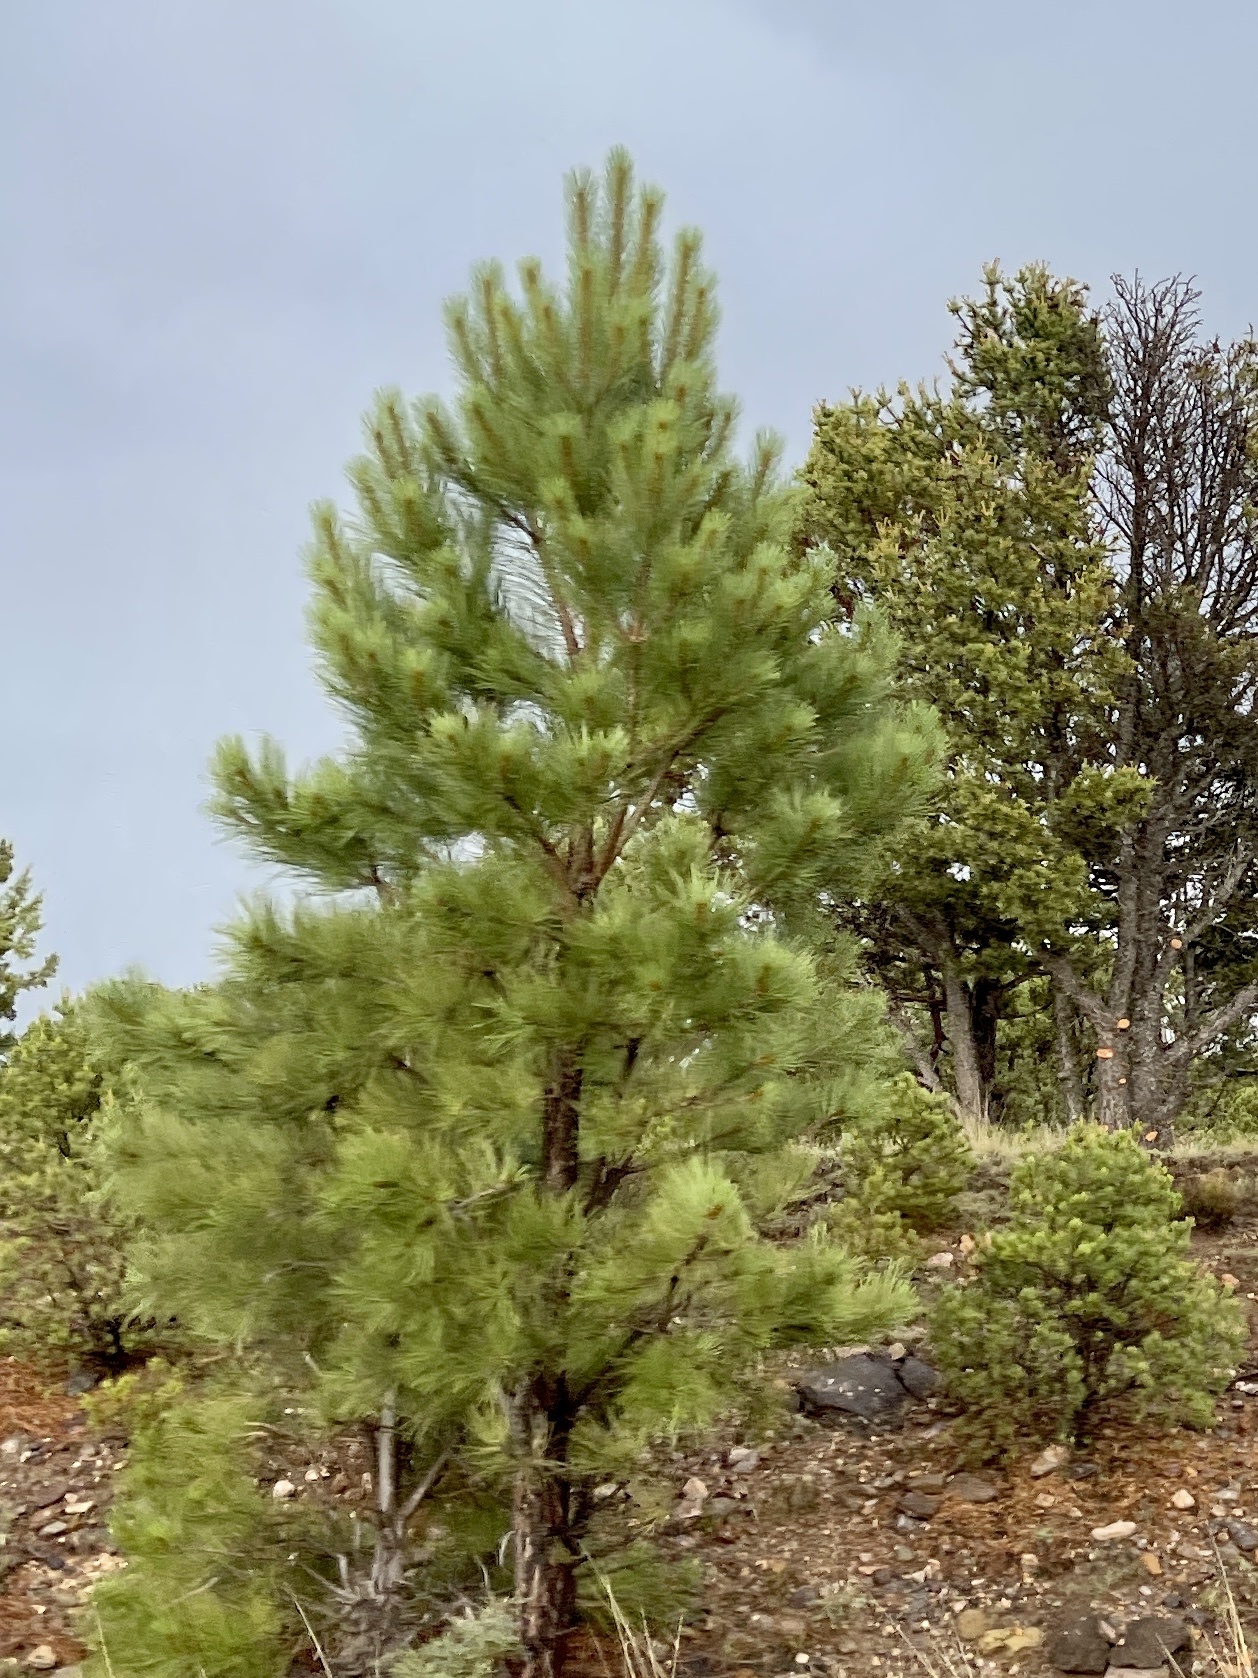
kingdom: Plantae
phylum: Tracheophyta
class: Pinopsida
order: Pinales
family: Pinaceae
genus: Pinus
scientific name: Pinus ponderosa
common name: Western yellow-pine
